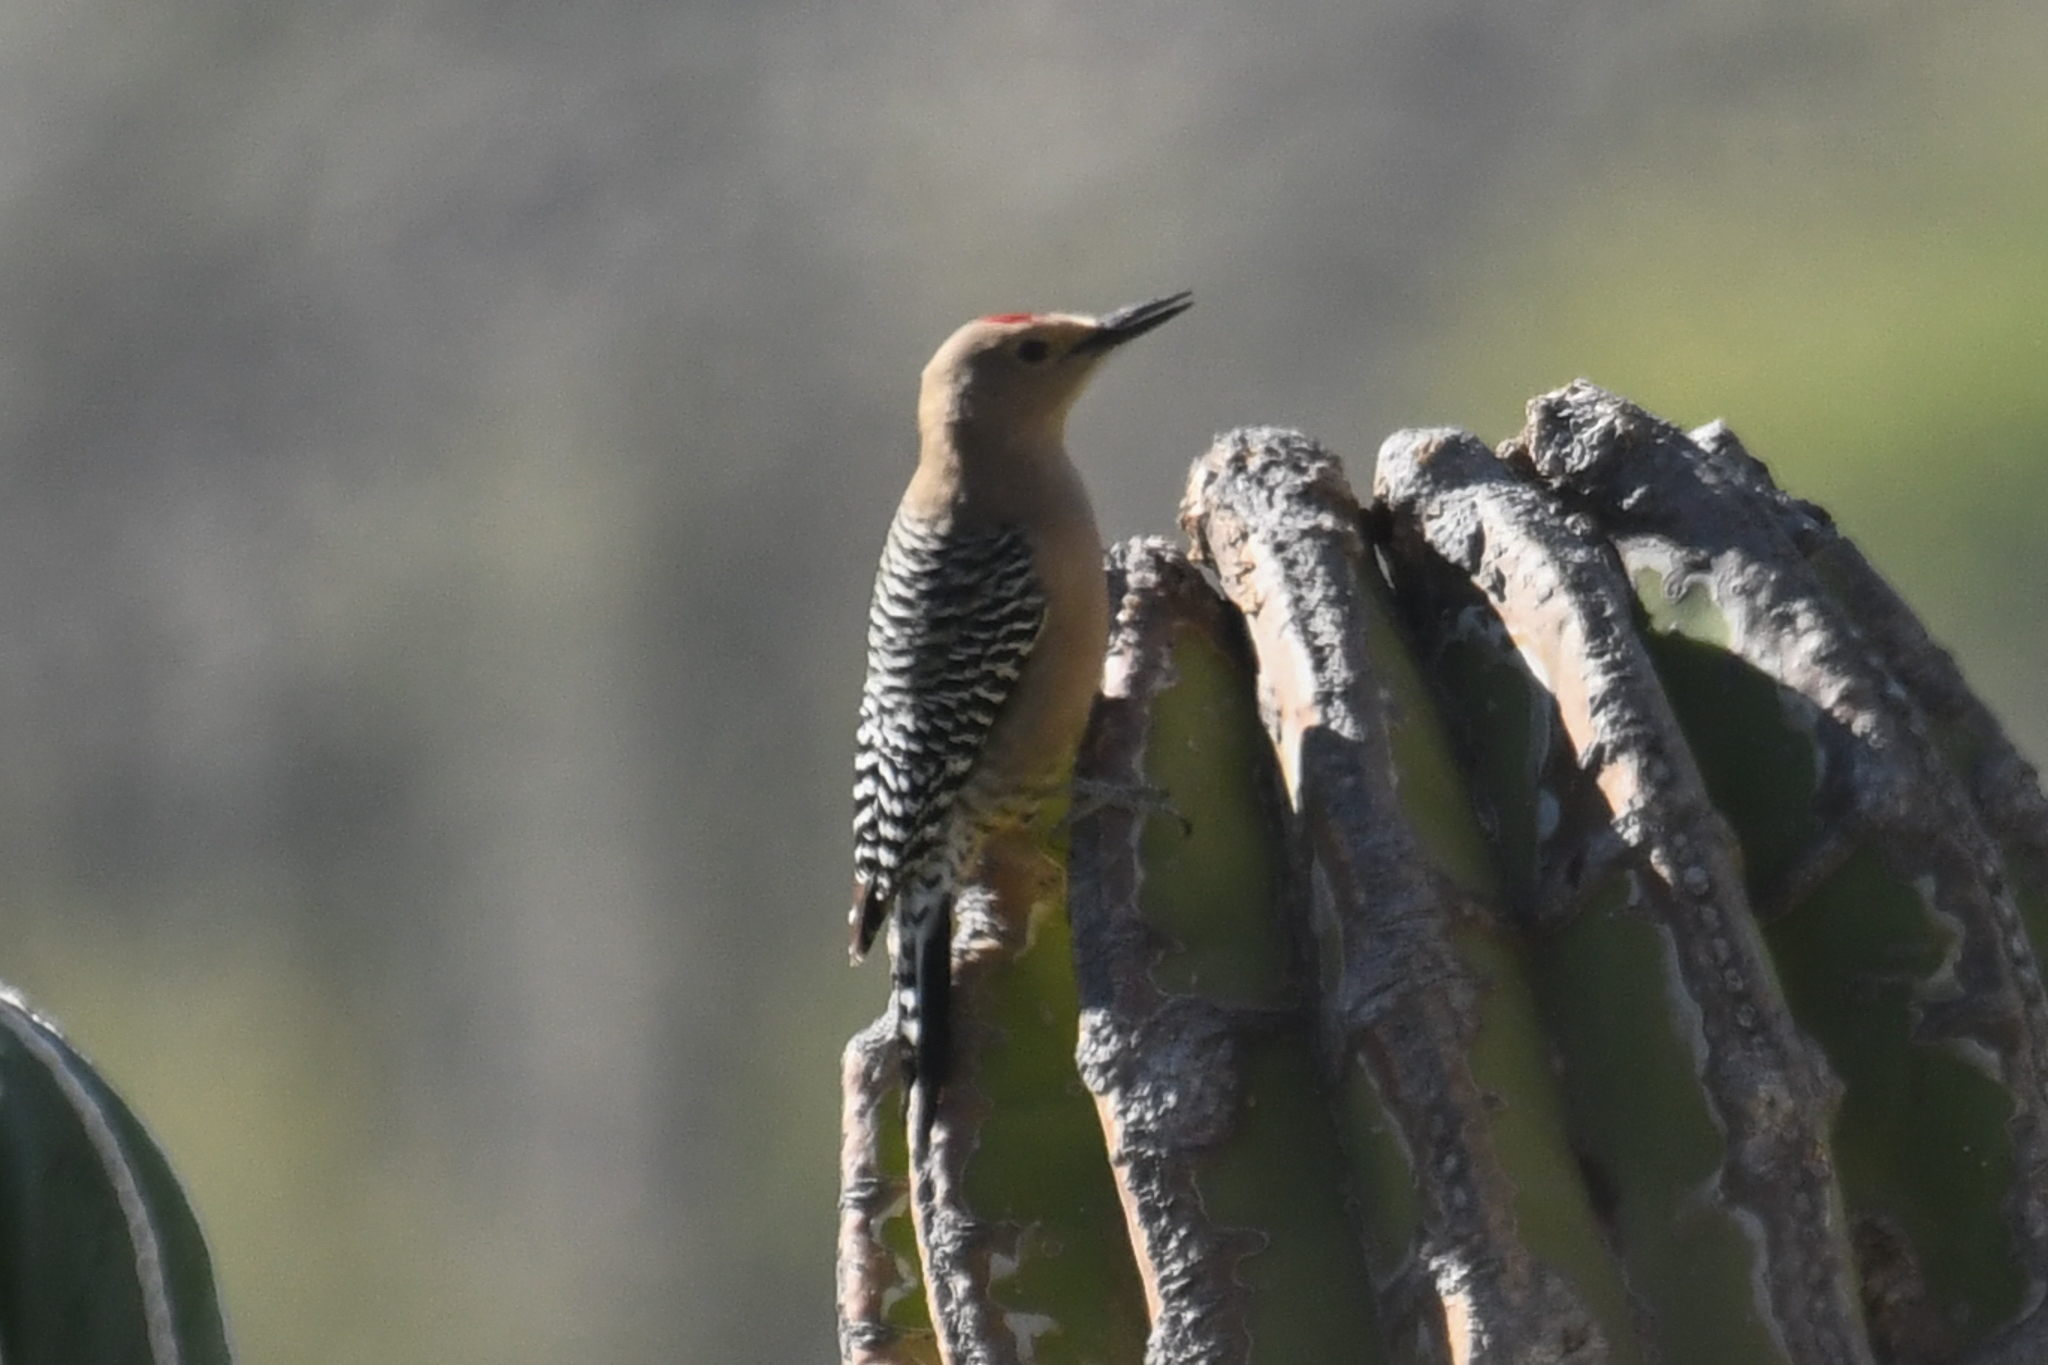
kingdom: Animalia
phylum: Chordata
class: Aves
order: Piciformes
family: Picidae
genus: Melanerpes
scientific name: Melanerpes uropygialis
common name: Gila woodpecker
